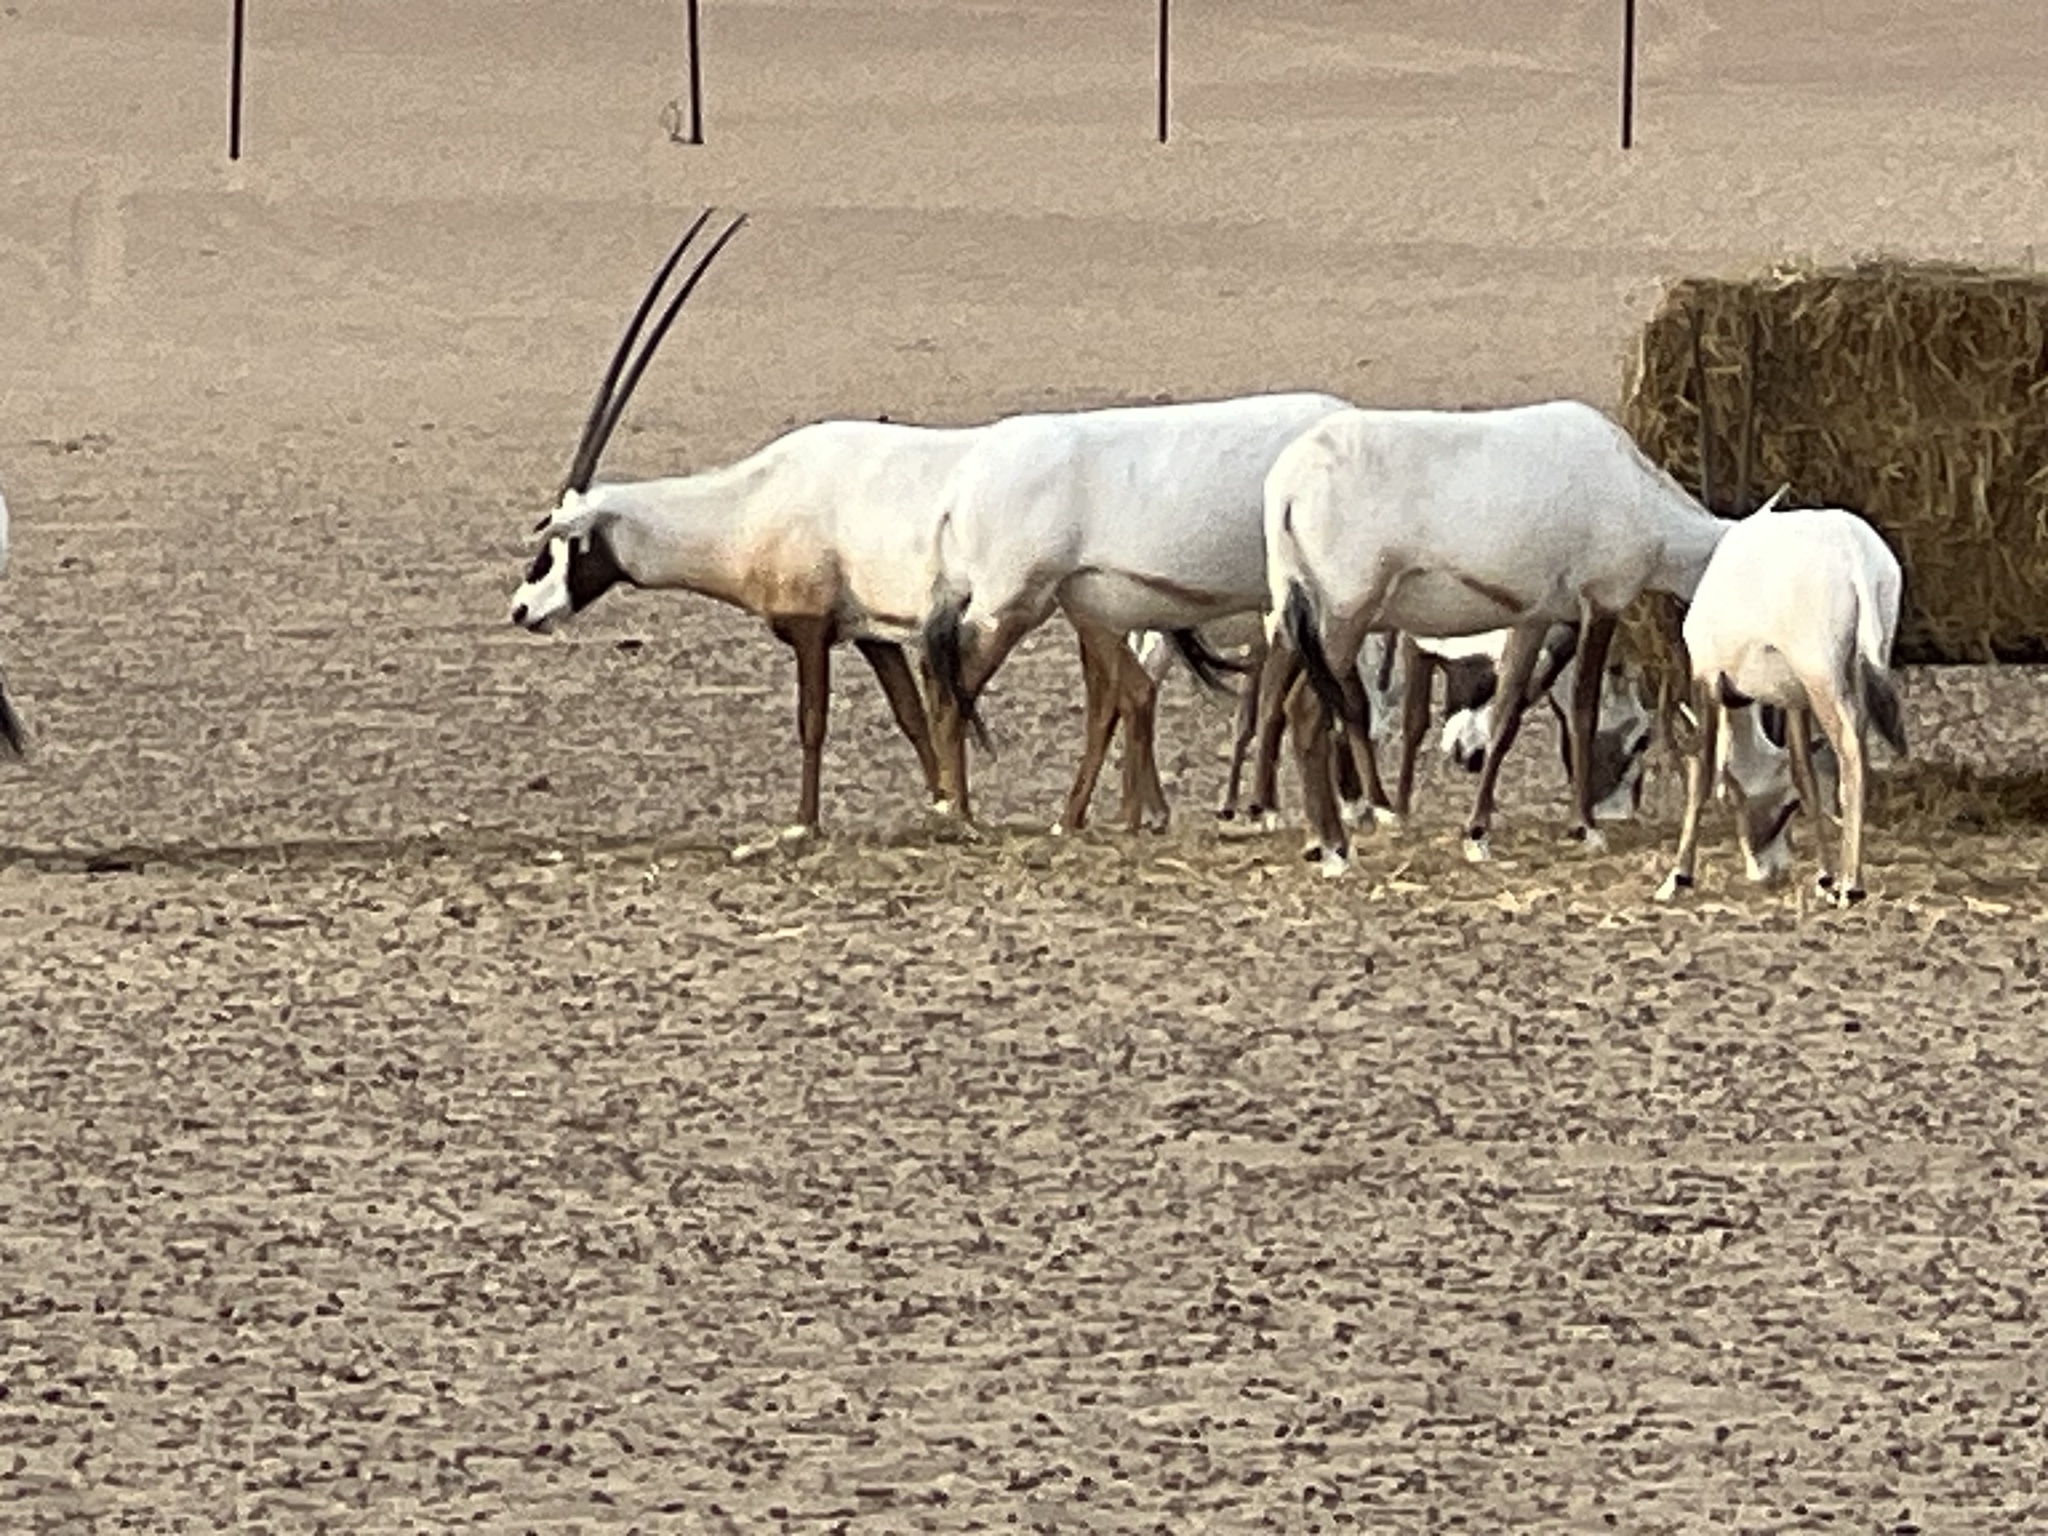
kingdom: Animalia
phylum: Chordata
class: Mammalia
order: Artiodactyla
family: Bovidae
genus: Oryx
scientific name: Oryx leucoryx
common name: Arabian oryx
